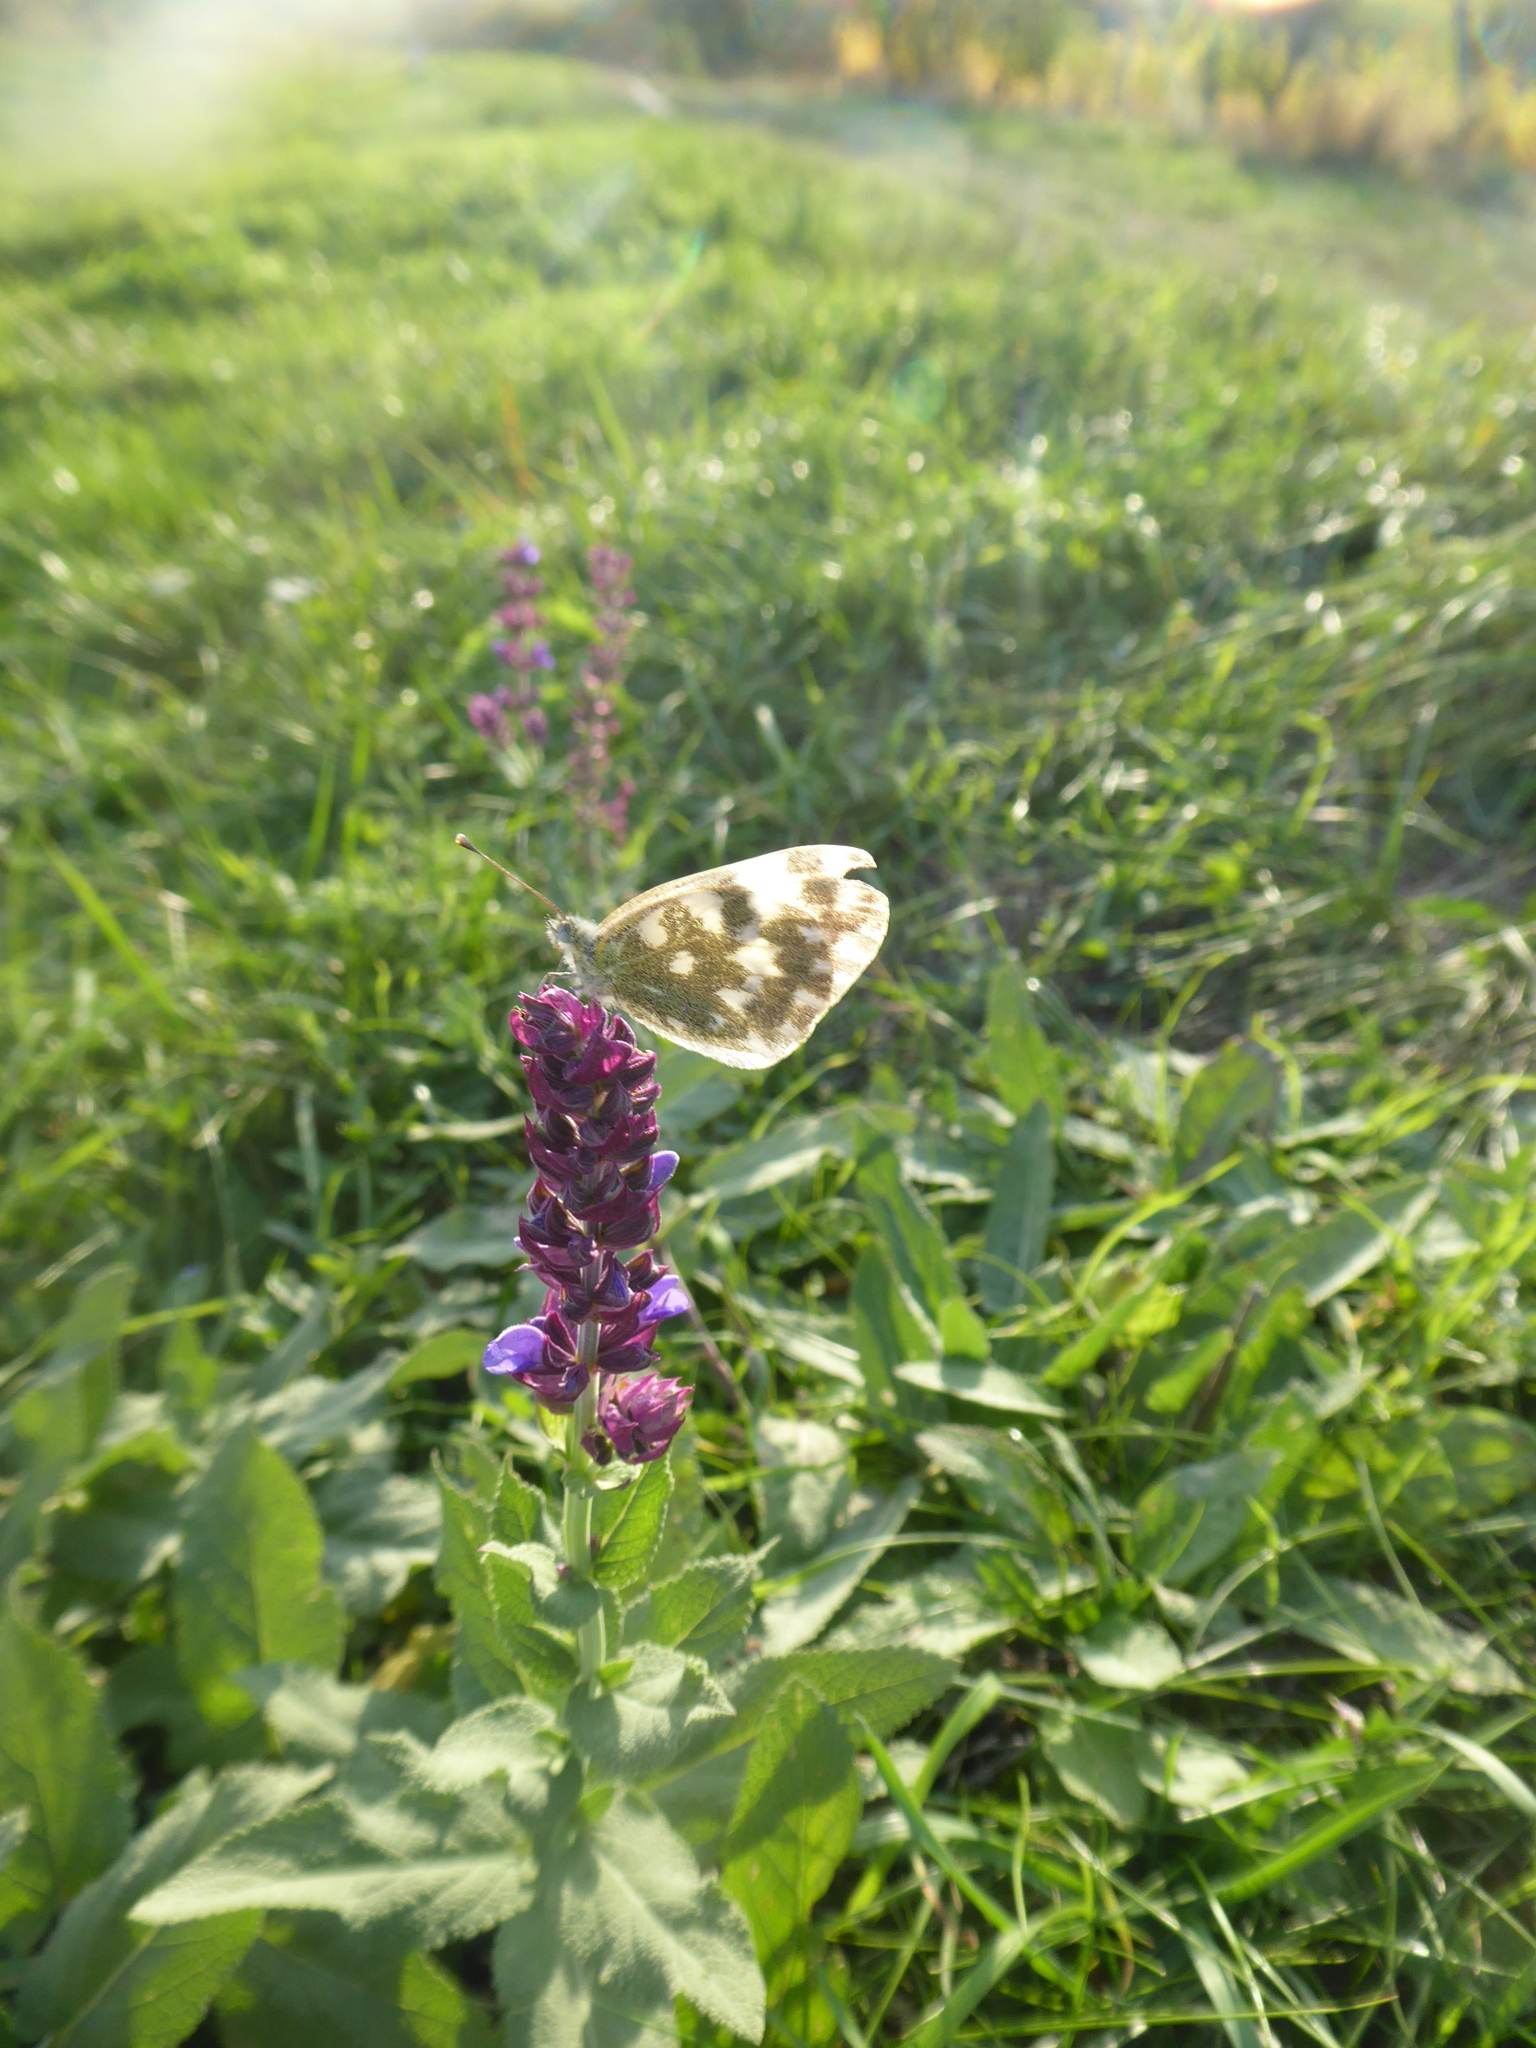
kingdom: Animalia
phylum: Arthropoda
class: Insecta
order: Lepidoptera
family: Pieridae
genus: Pontia
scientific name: Pontia edusa
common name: Eastern bath white
